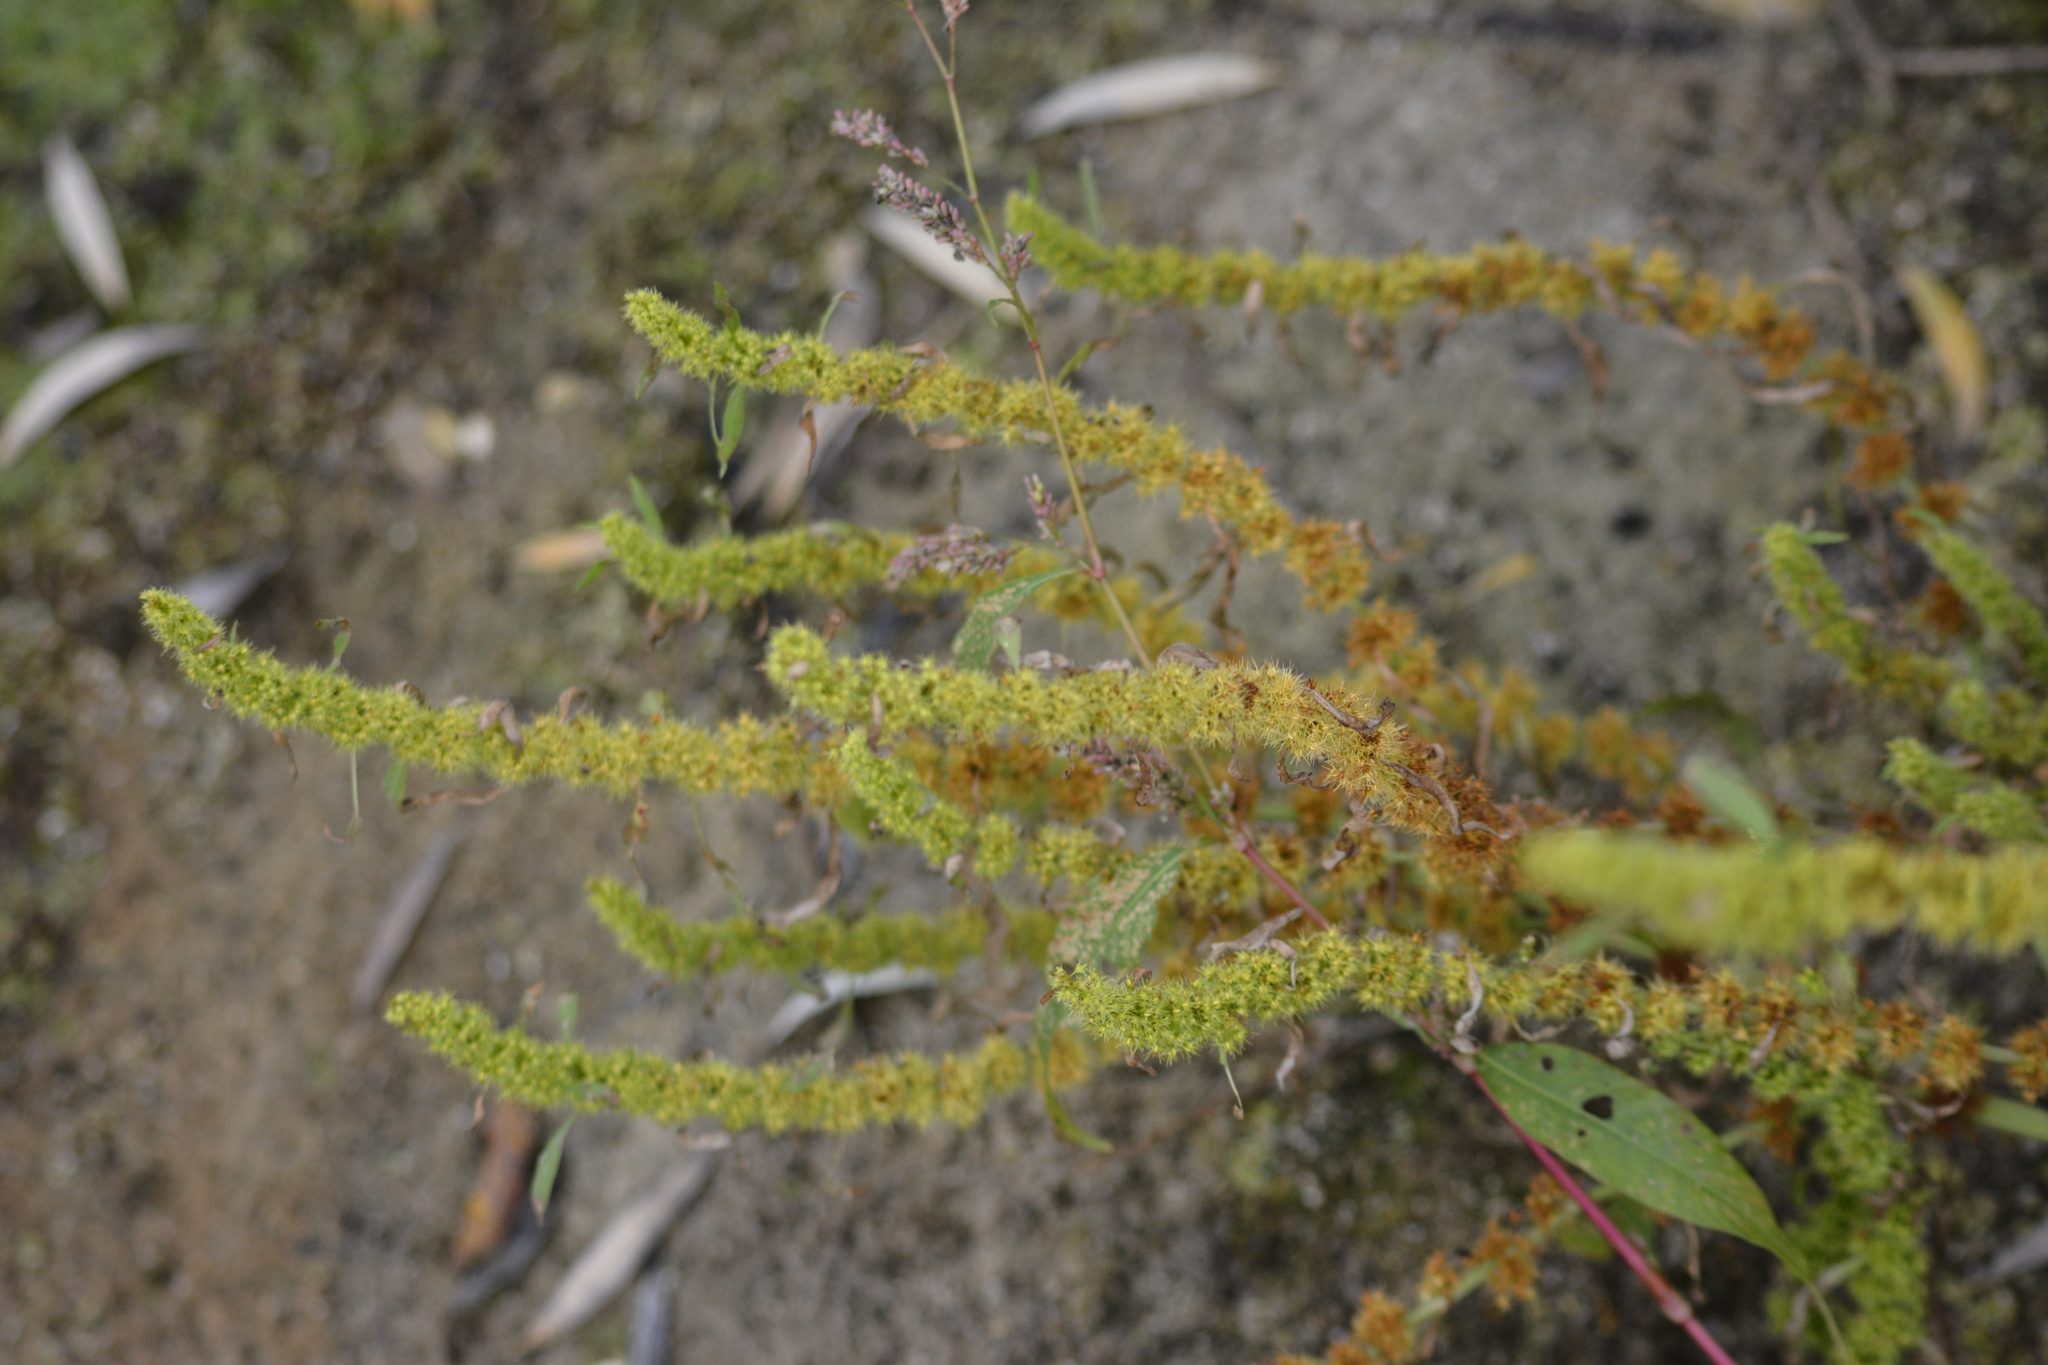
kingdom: Plantae
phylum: Tracheophyta
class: Magnoliopsida
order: Caryophyllales
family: Polygonaceae
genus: Rumex
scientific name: Rumex maritimus
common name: Golden dock
